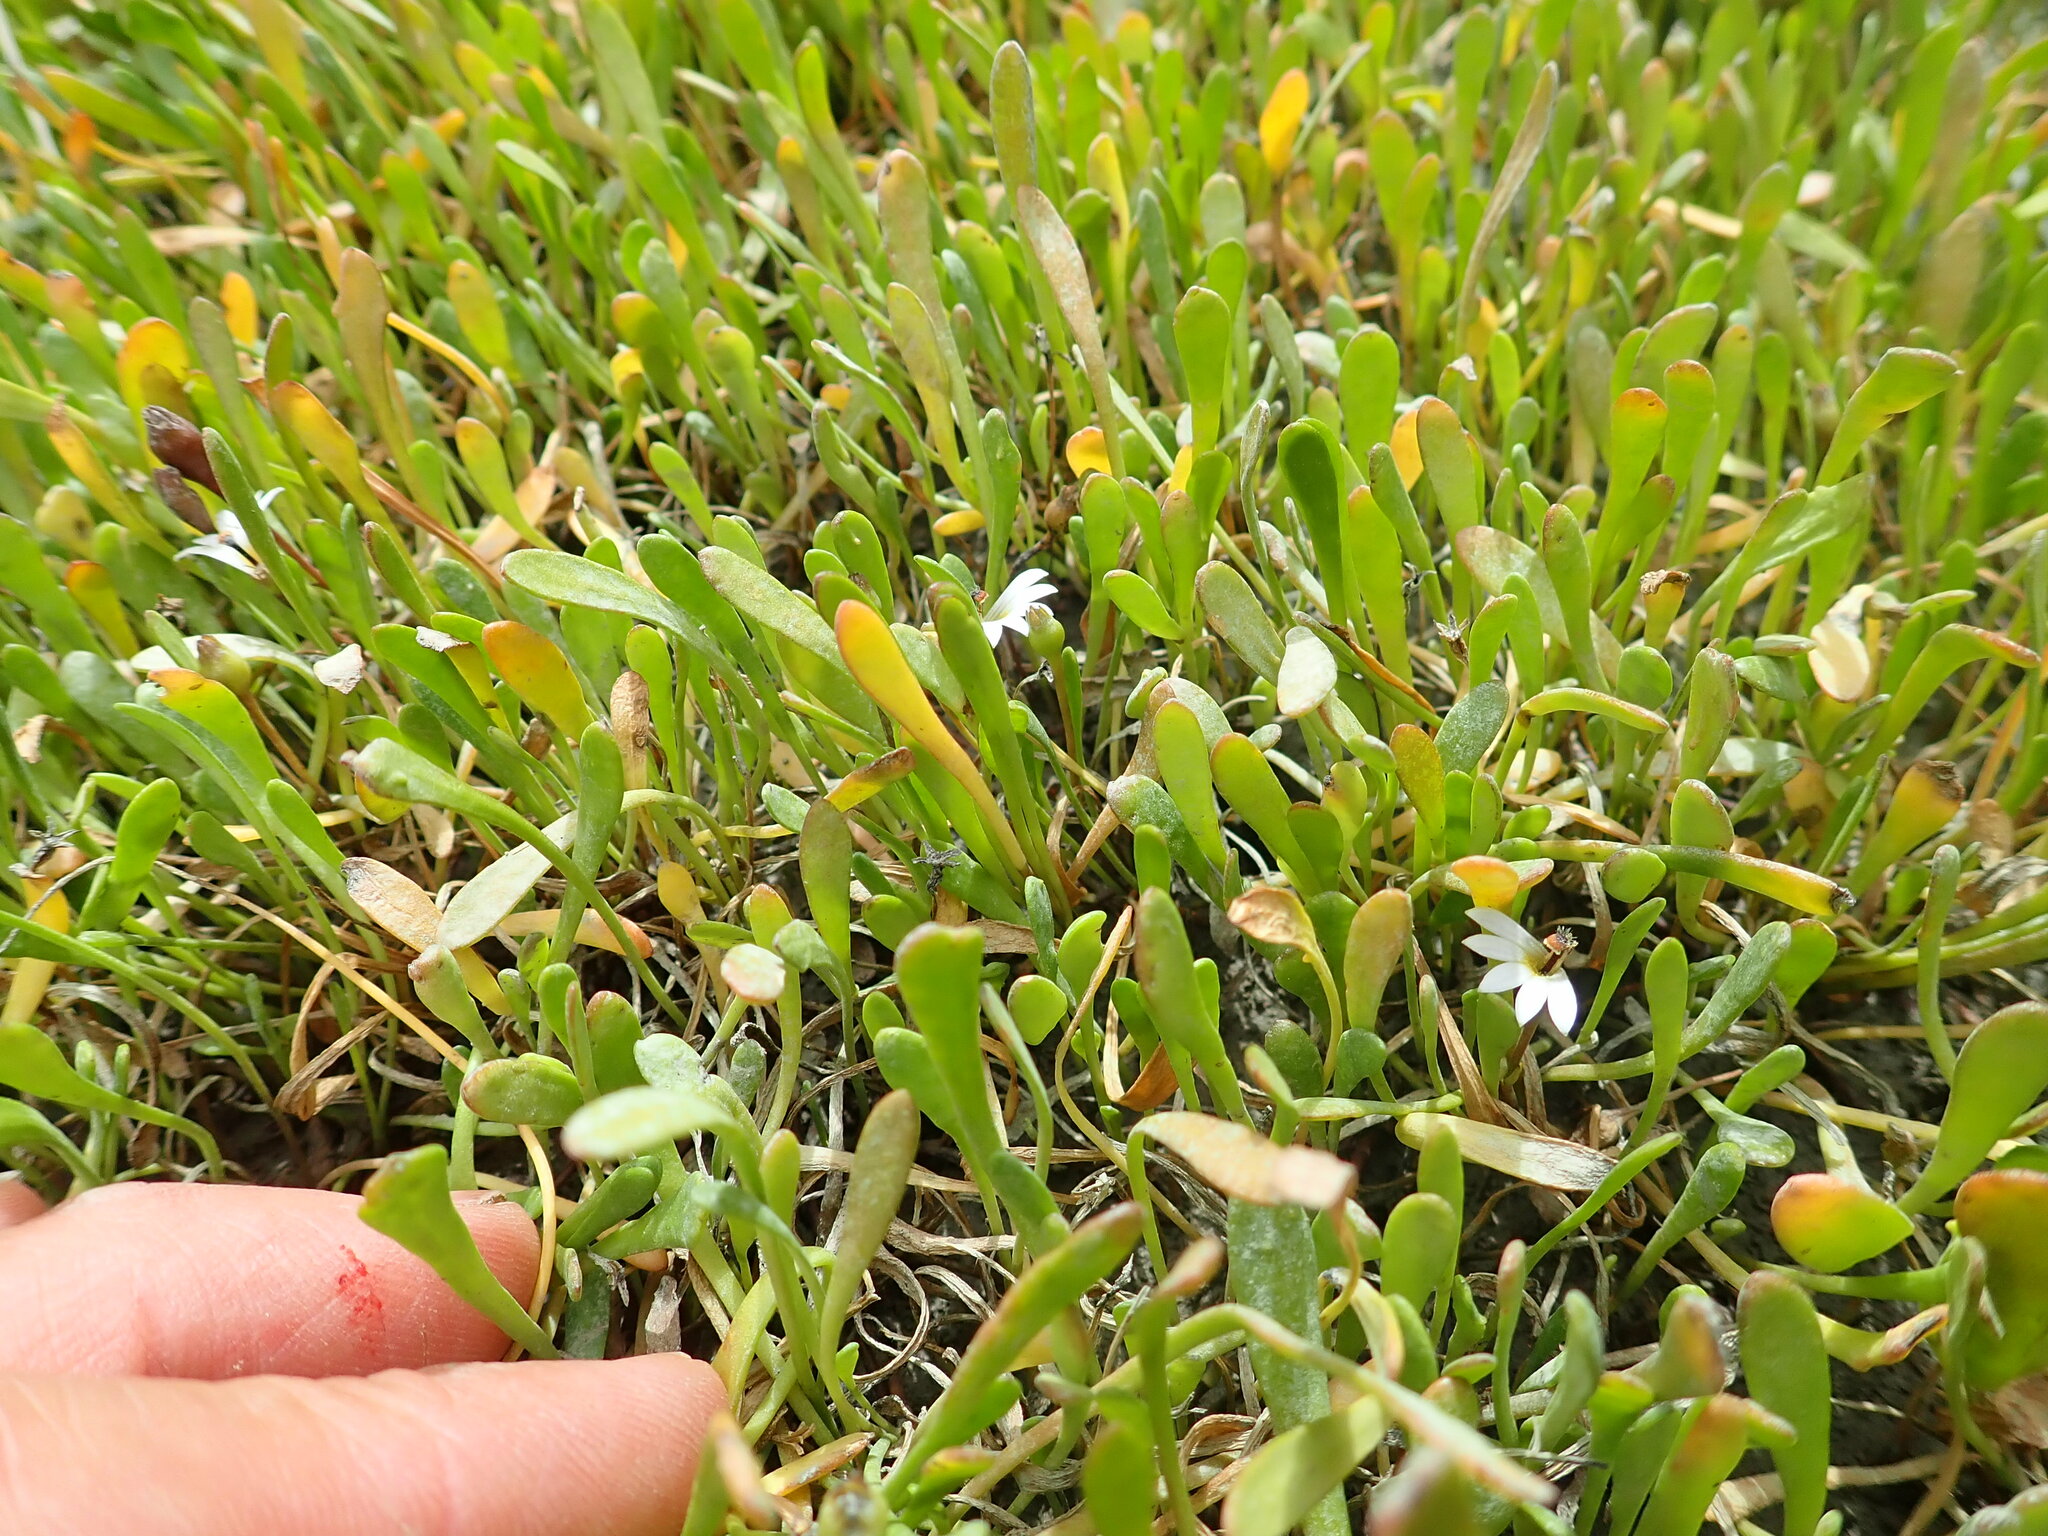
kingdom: Plantae
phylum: Tracheophyta
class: Magnoliopsida
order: Asterales
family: Goodeniaceae
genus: Goodenia
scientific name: Goodenia radicans
